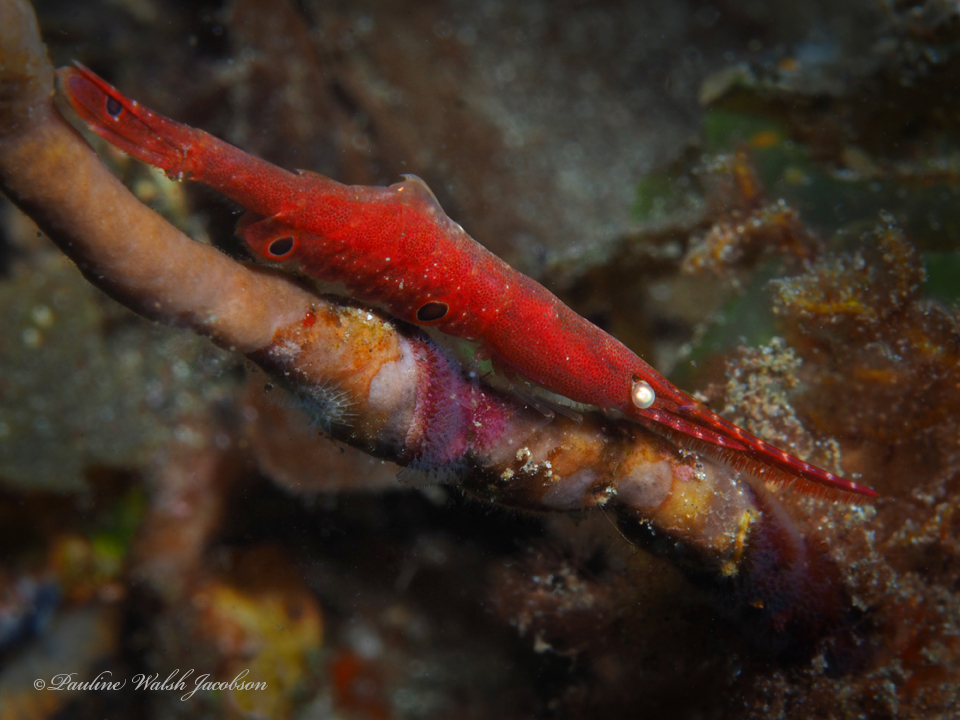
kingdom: Animalia
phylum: Arthropoda
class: Malacostraca
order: Decapoda
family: Hippolytidae
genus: Tozeuma
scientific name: Tozeuma lanceolatum
